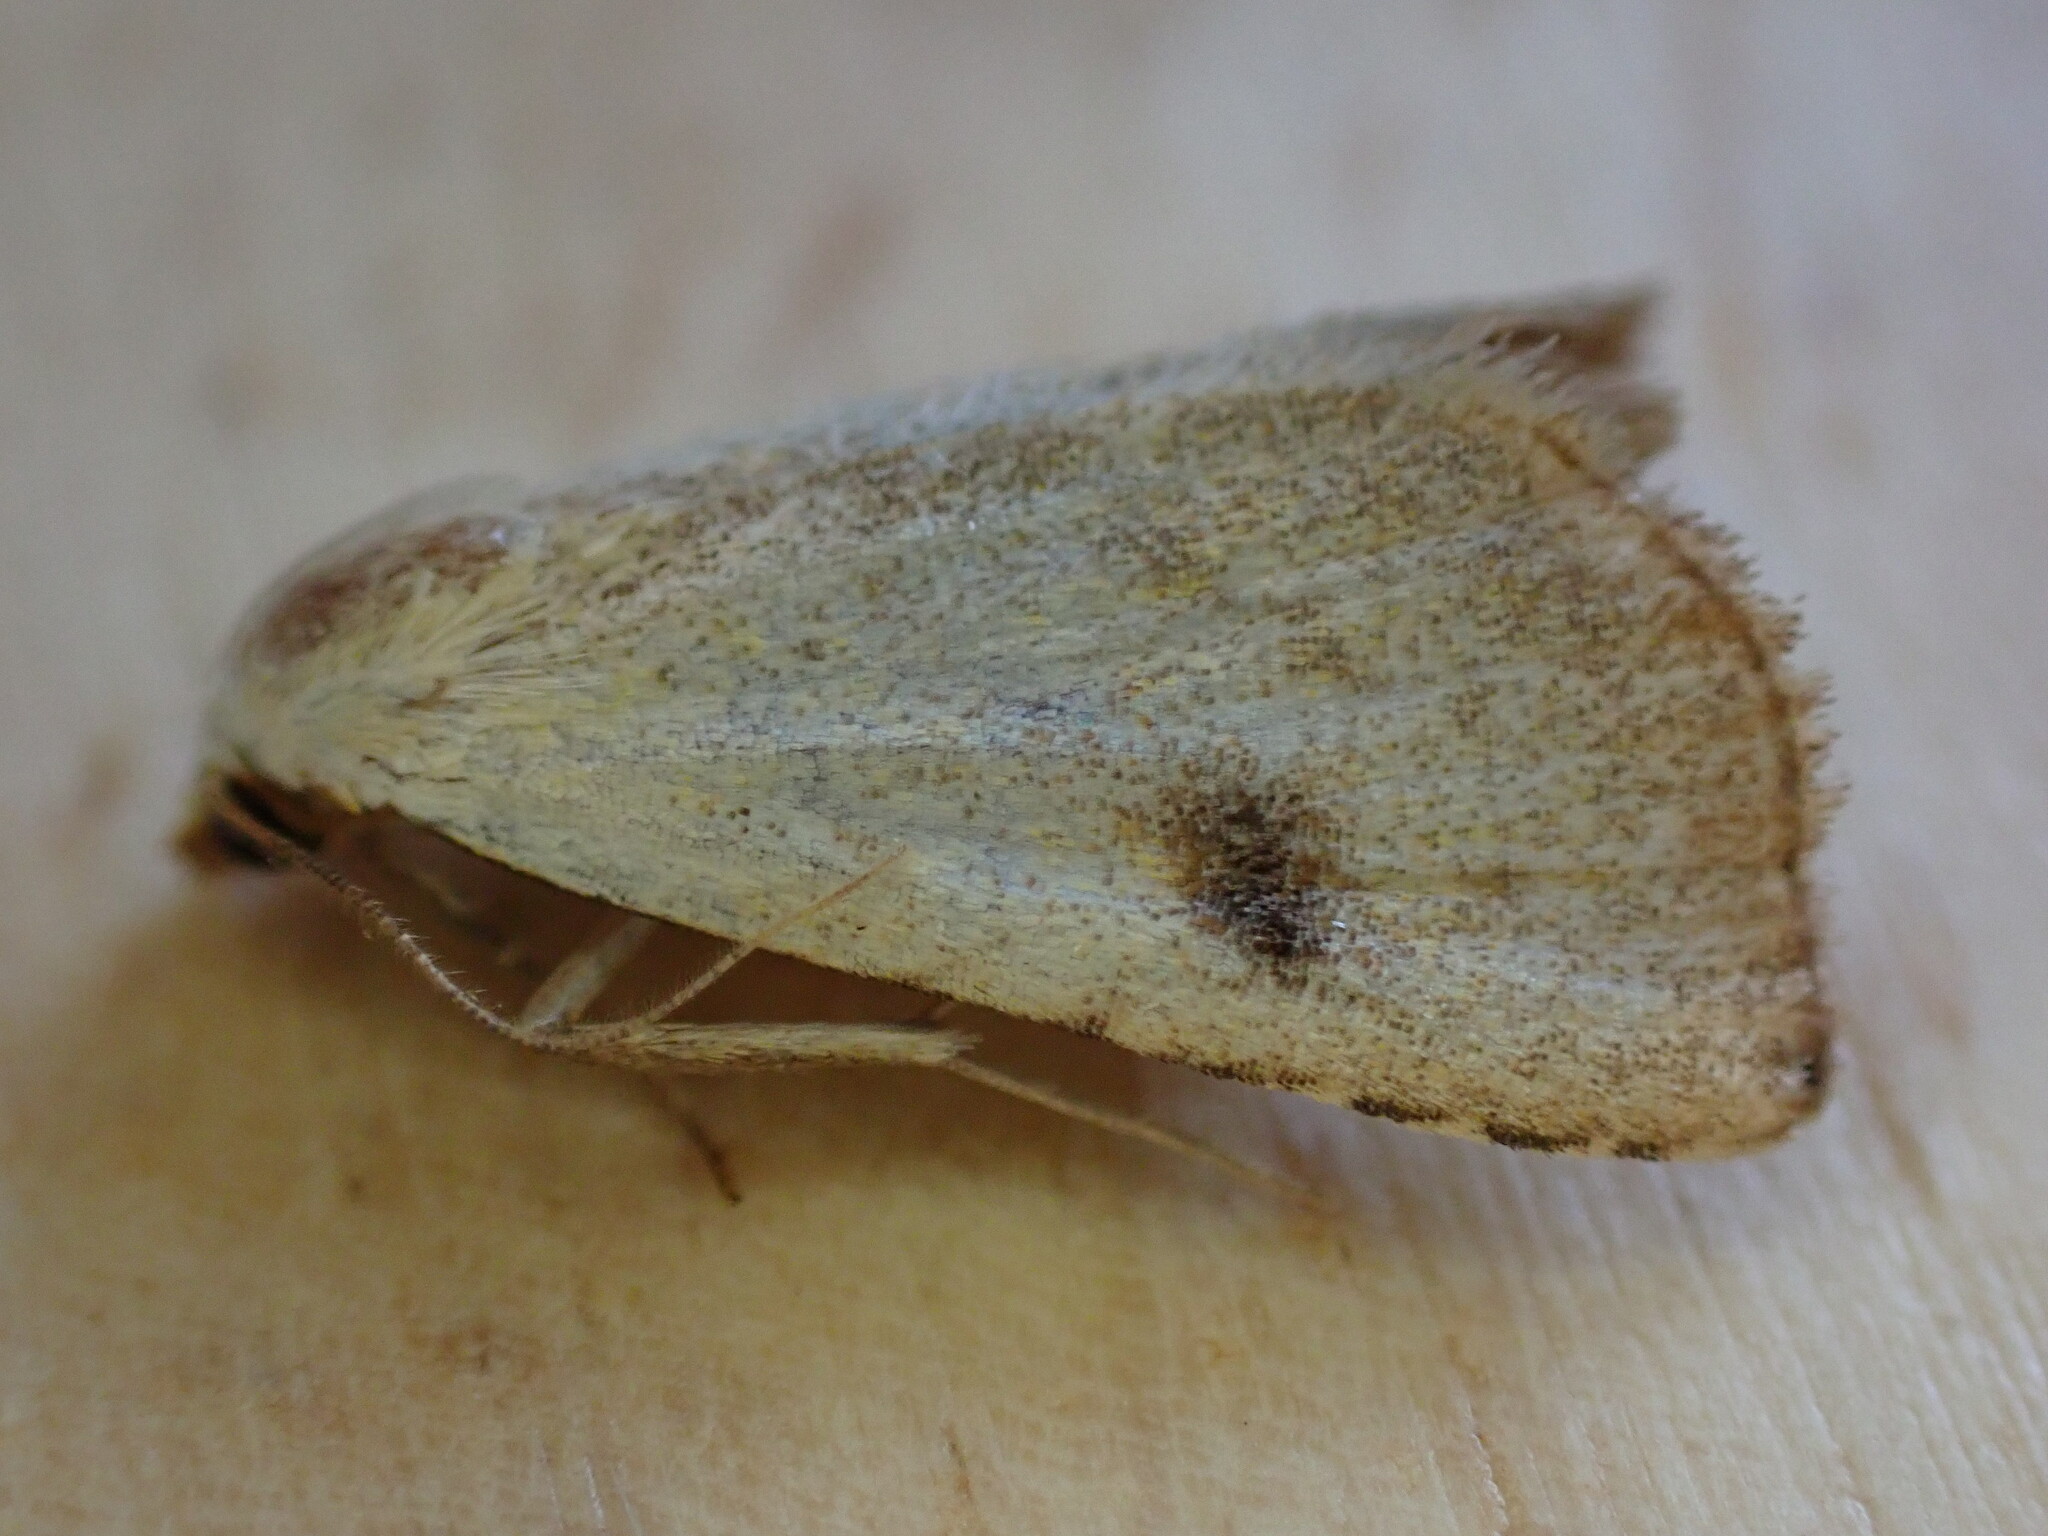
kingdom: Animalia
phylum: Arthropoda
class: Insecta
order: Lepidoptera
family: Erebidae
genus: Rivula
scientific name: Rivula sericealis
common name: Straw dot
